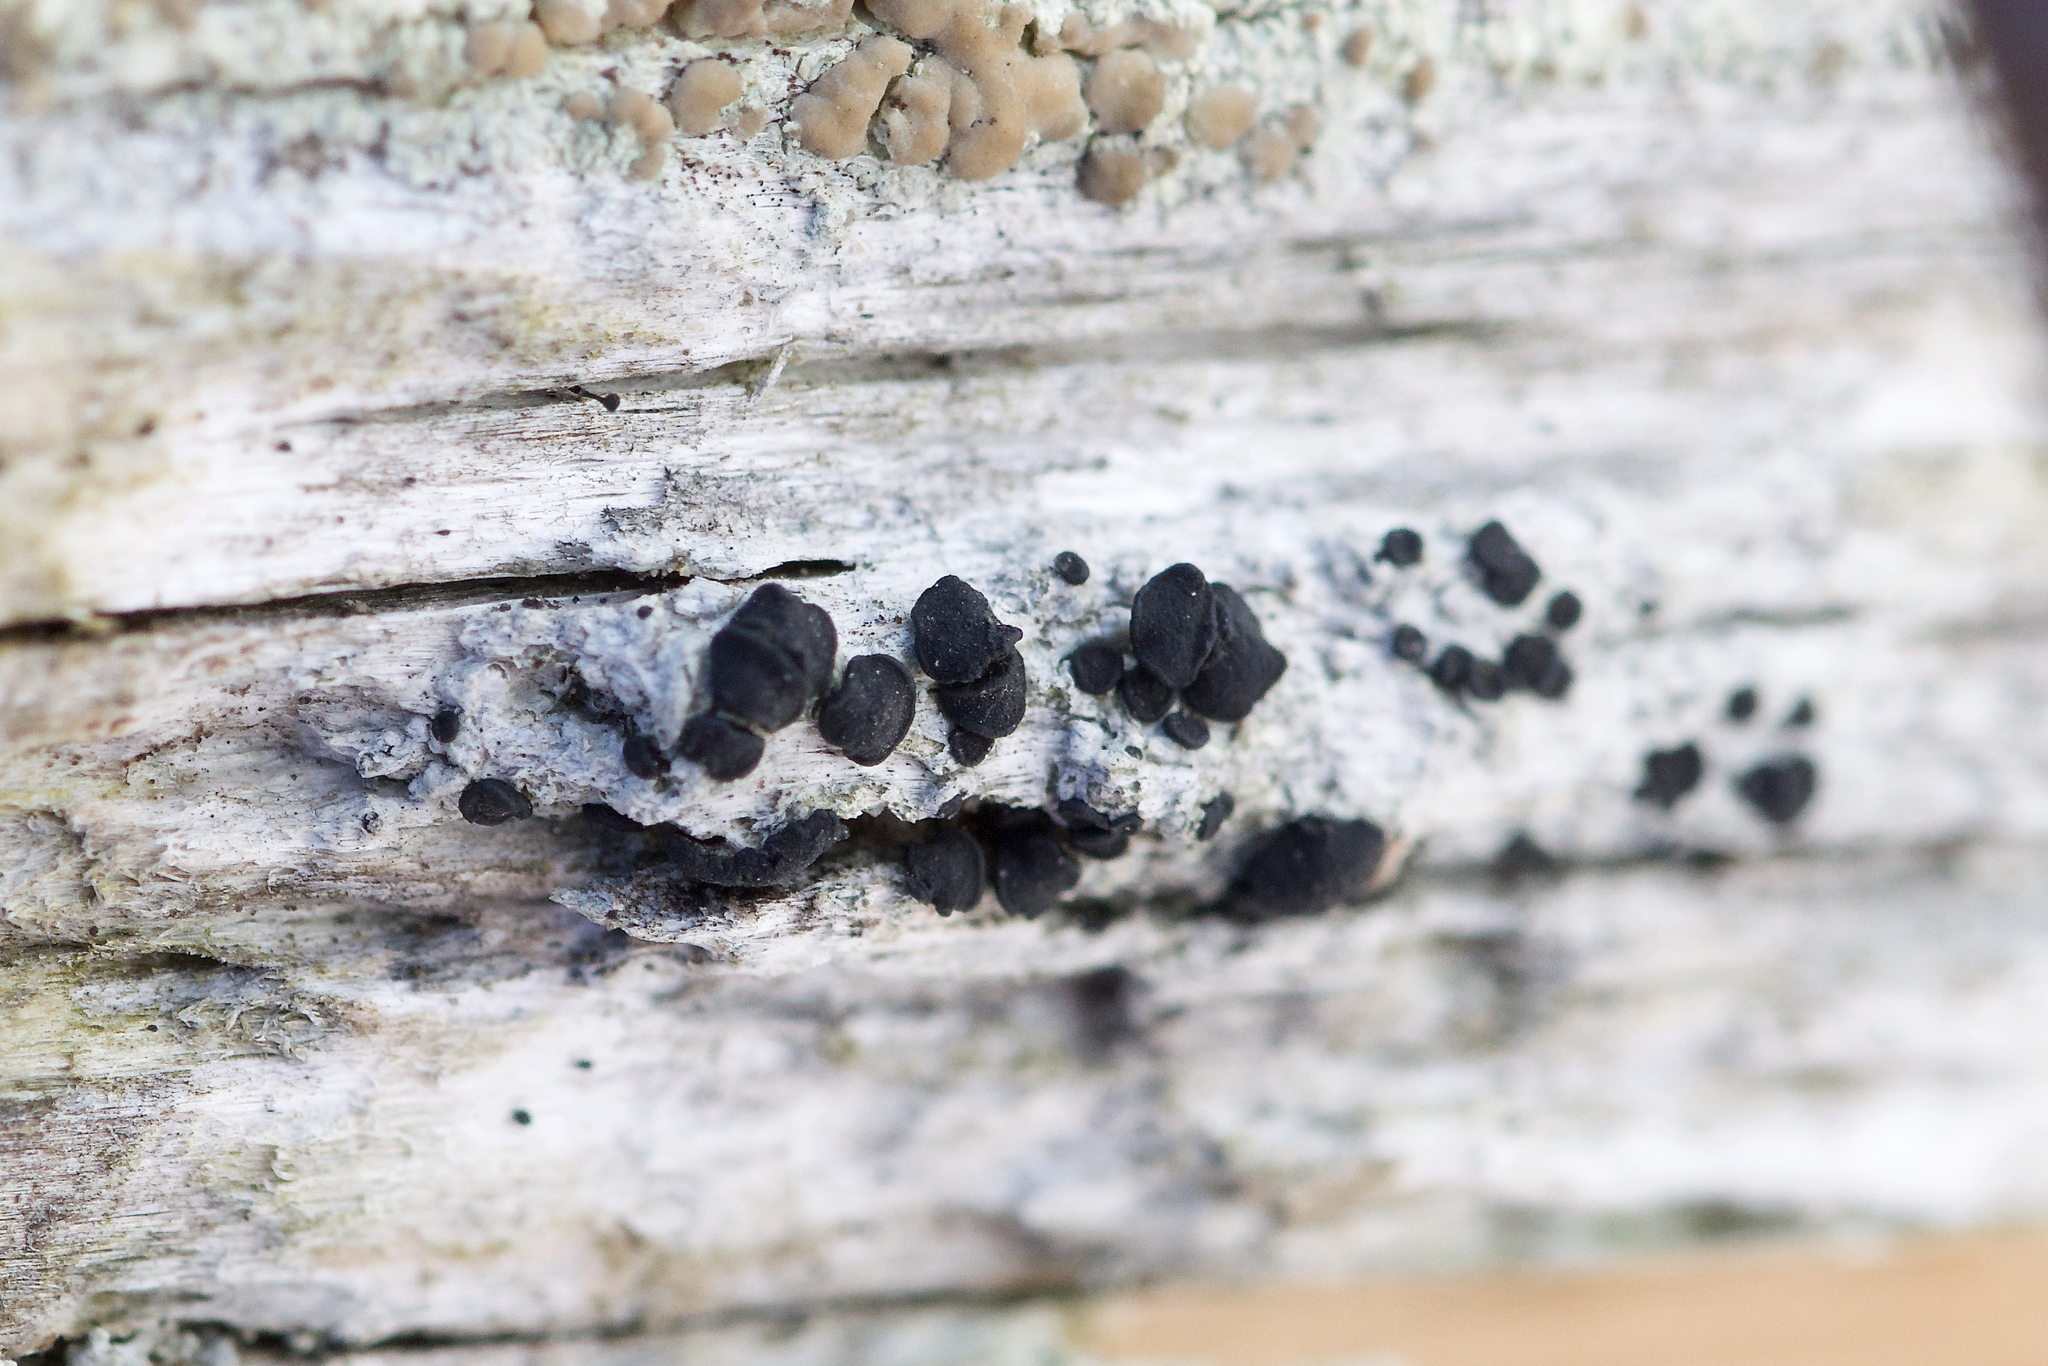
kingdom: Fungi
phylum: Ascomycota
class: Lecanoromycetes
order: Caliciales
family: Caliciaceae
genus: Buellia
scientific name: Buellia erubescens
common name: Common button lichen
